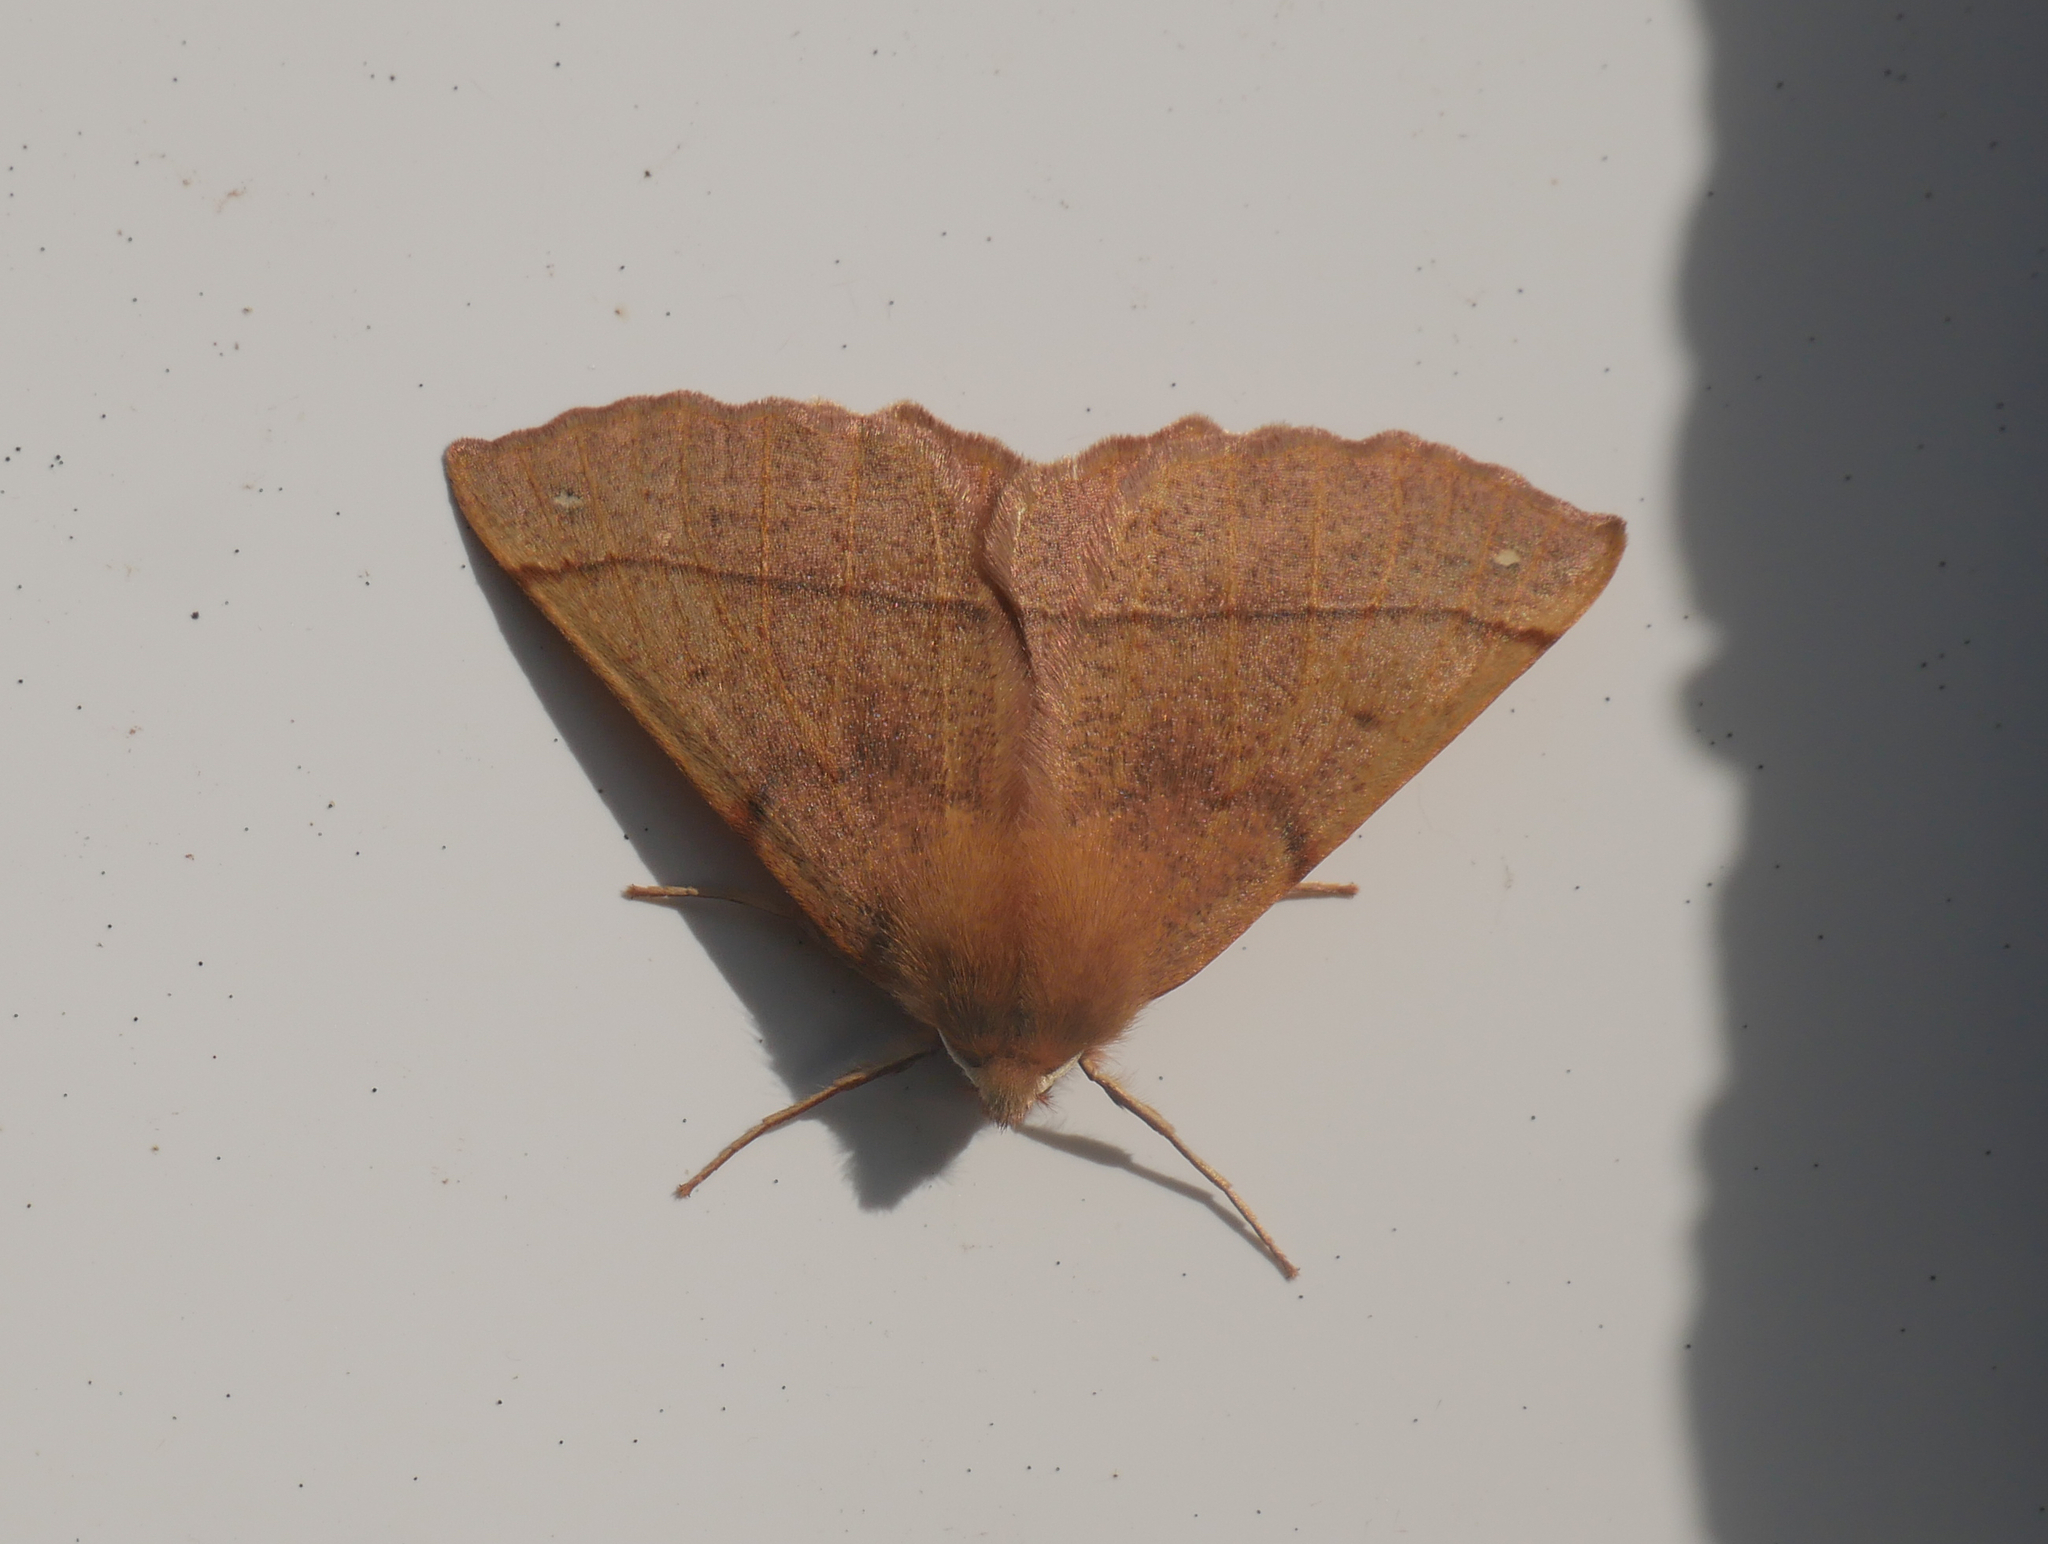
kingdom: Animalia
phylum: Arthropoda
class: Insecta
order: Lepidoptera
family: Geometridae
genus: Colotois
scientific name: Colotois pennaria
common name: Feathered thorn
